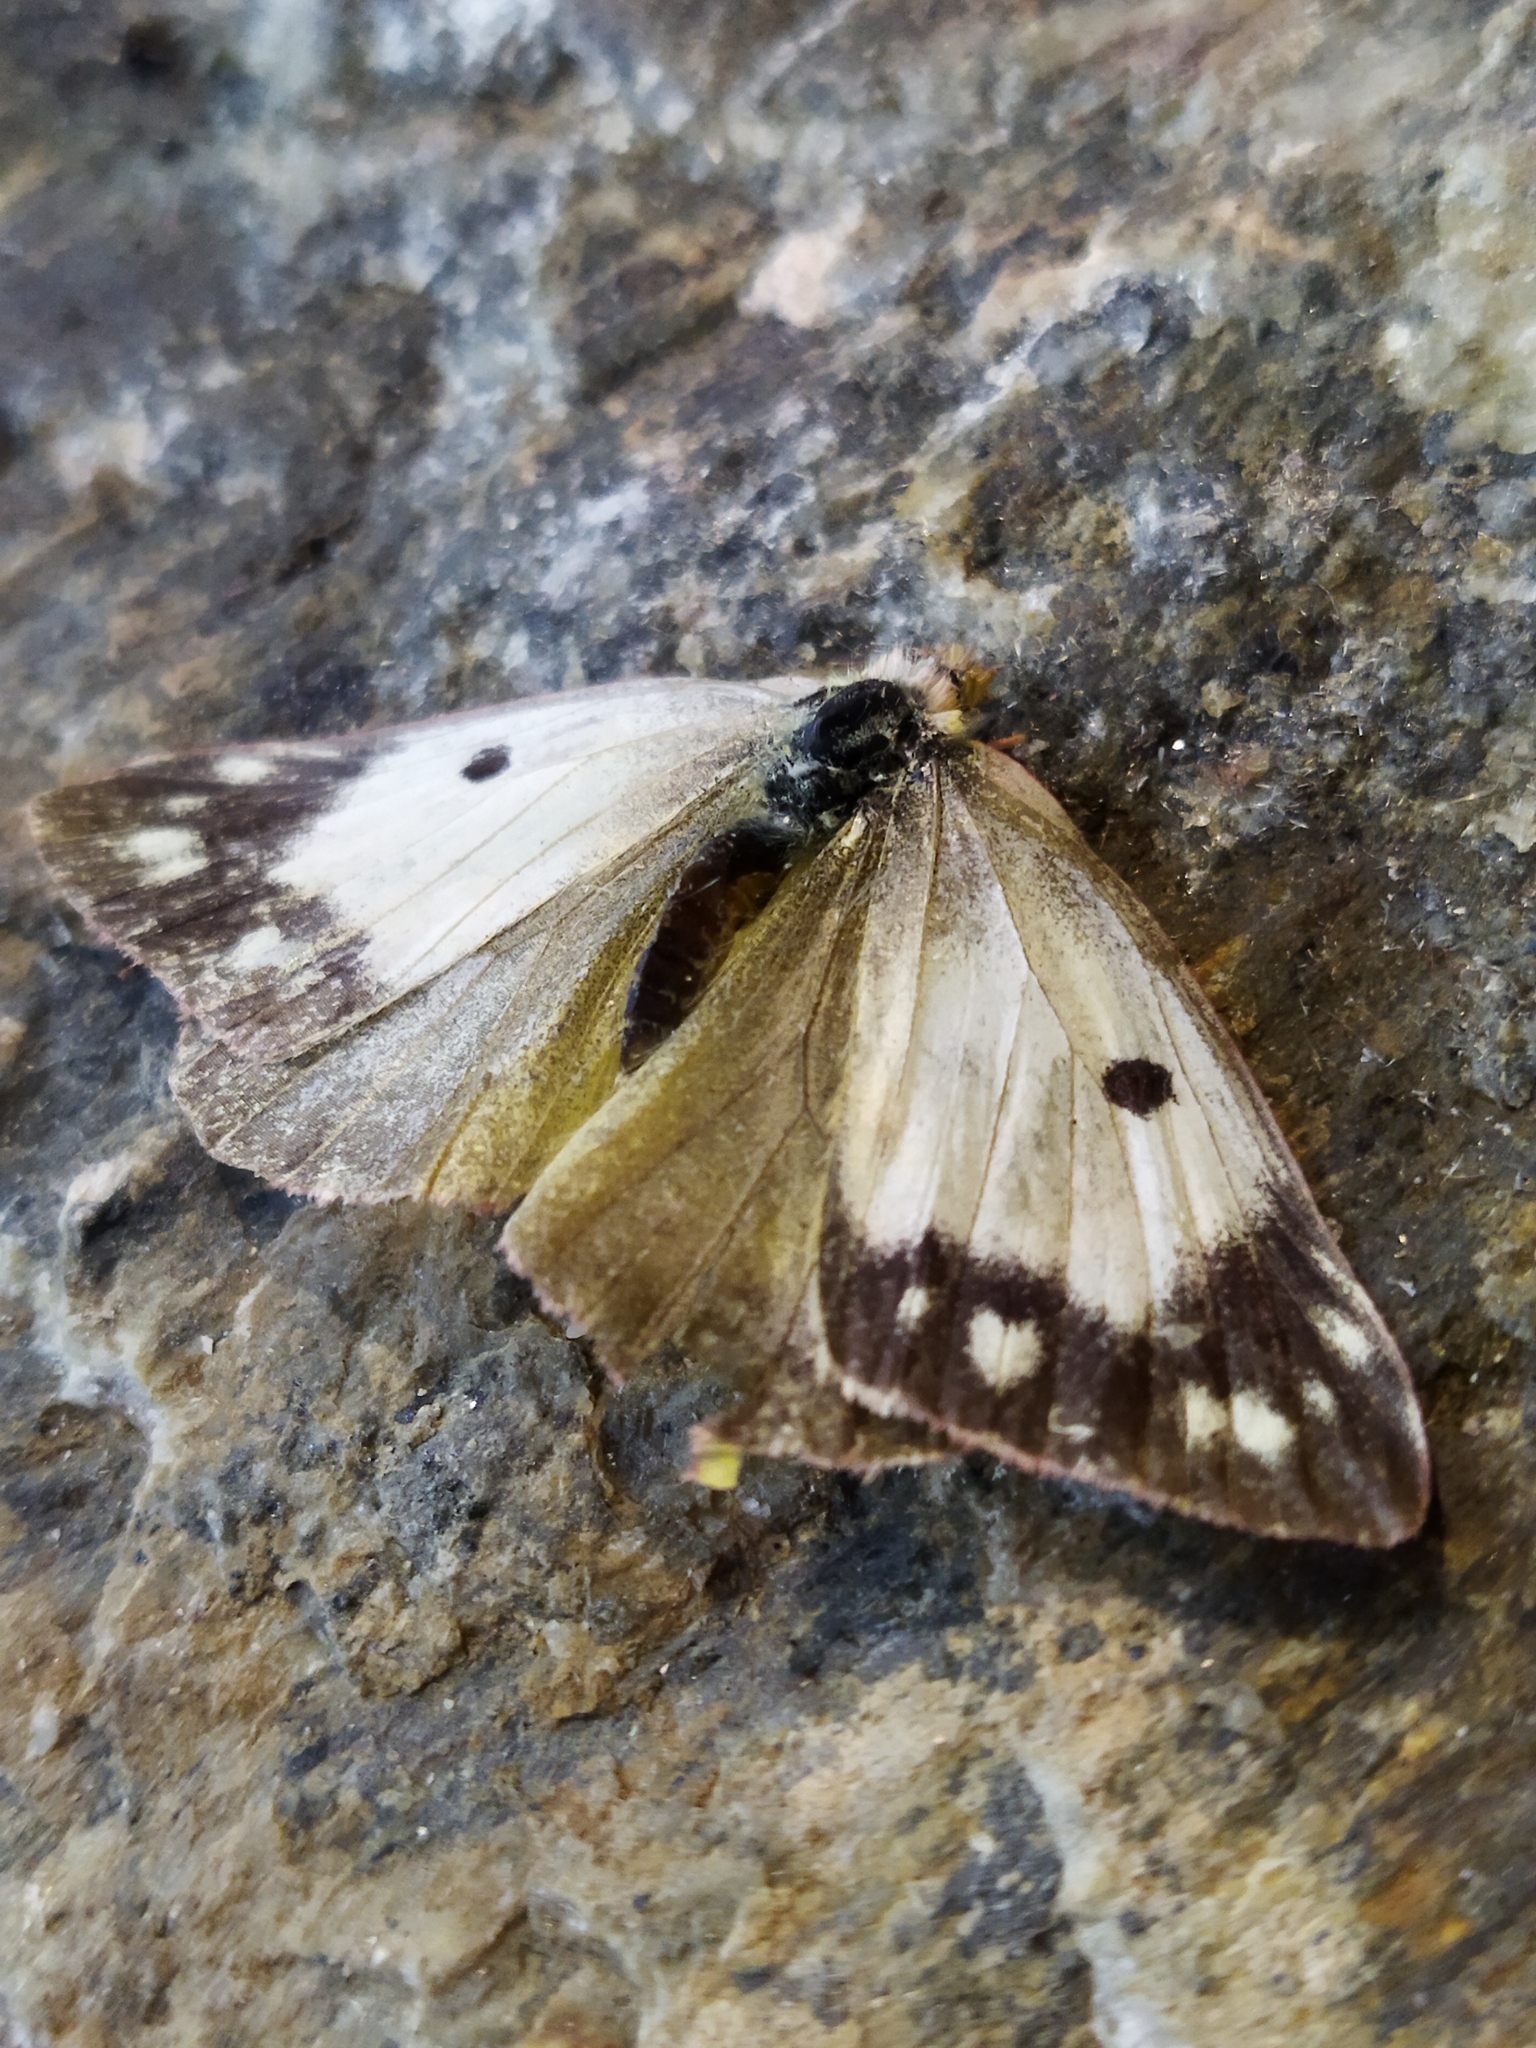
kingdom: Animalia
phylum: Arthropoda
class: Insecta
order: Lepidoptera
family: Pieridae
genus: Colias
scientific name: Colias croceus
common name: Clouded yellow
